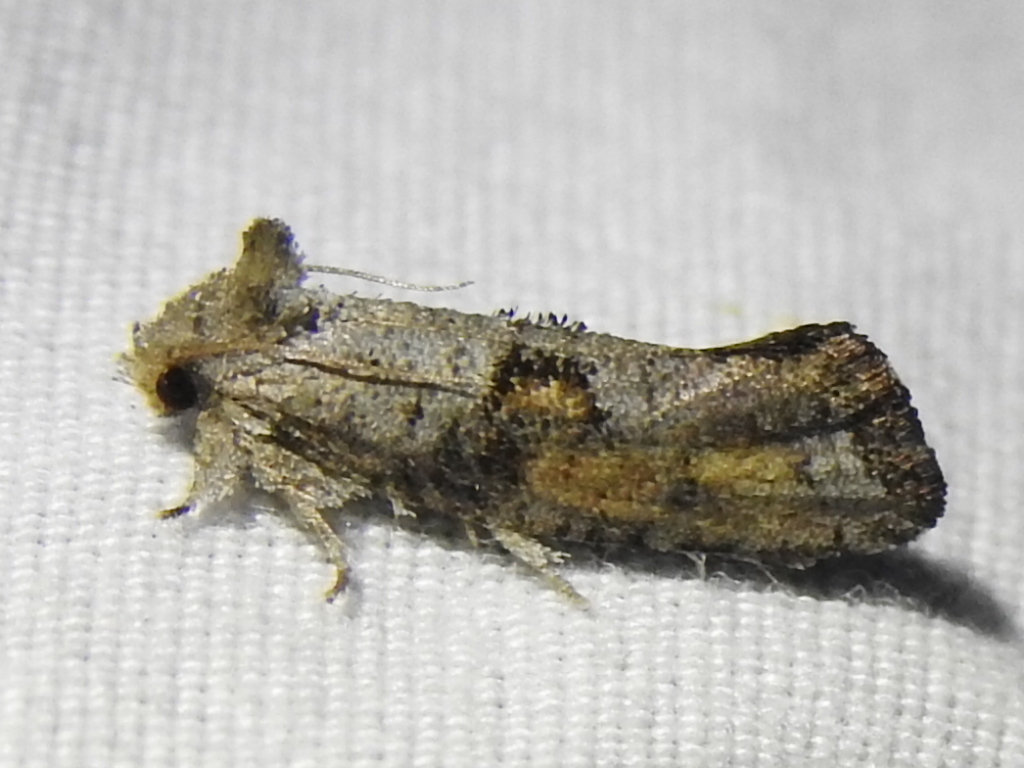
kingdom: Animalia
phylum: Arthropoda
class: Insecta
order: Lepidoptera
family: Tineidae
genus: Acrolophus
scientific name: Acrolophus piger
